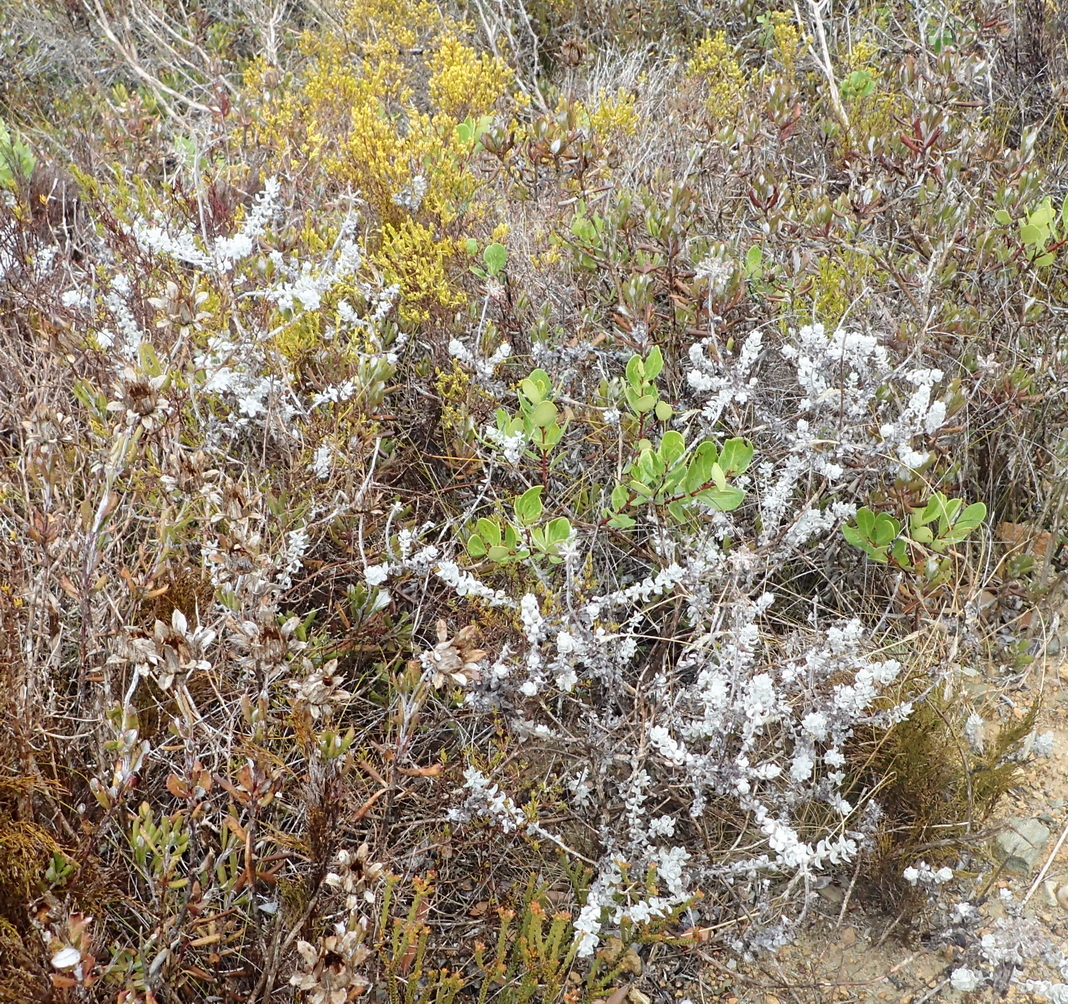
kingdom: Plantae
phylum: Tracheophyta
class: Magnoliopsida
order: Asterales
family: Asteraceae
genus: Helichrysum
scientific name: Helichrysum dasyanthum
